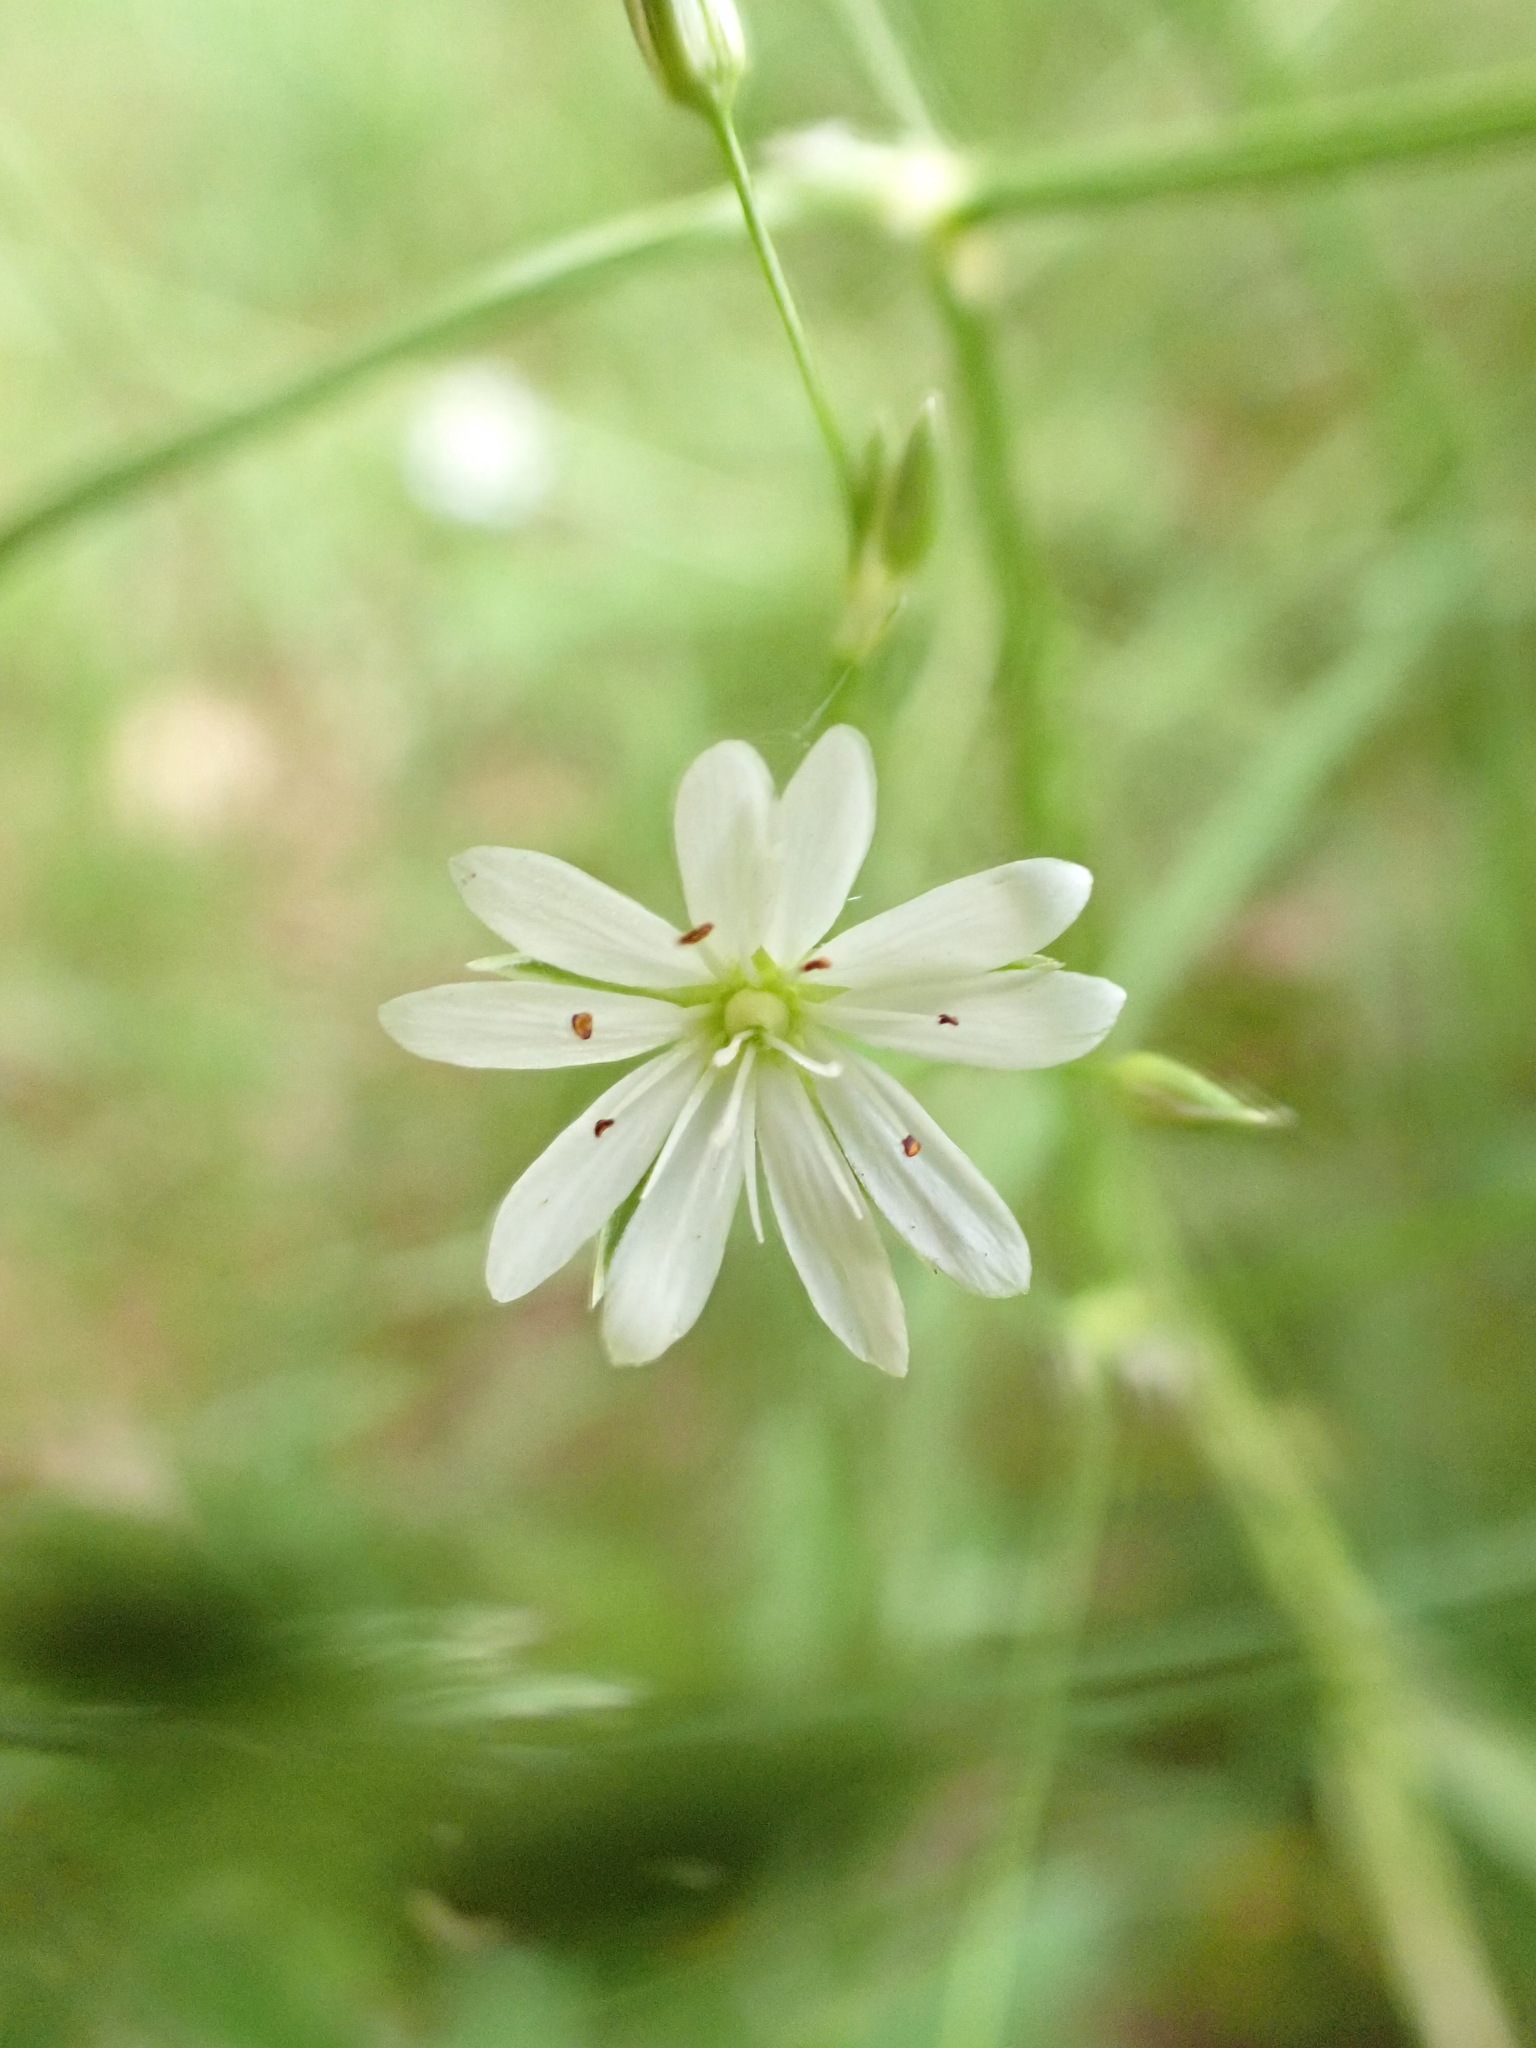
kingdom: Plantae
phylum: Tracheophyta
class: Magnoliopsida
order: Caryophyllales
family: Caryophyllaceae
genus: Stellaria
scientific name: Stellaria graminea
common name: Grass-like starwort
